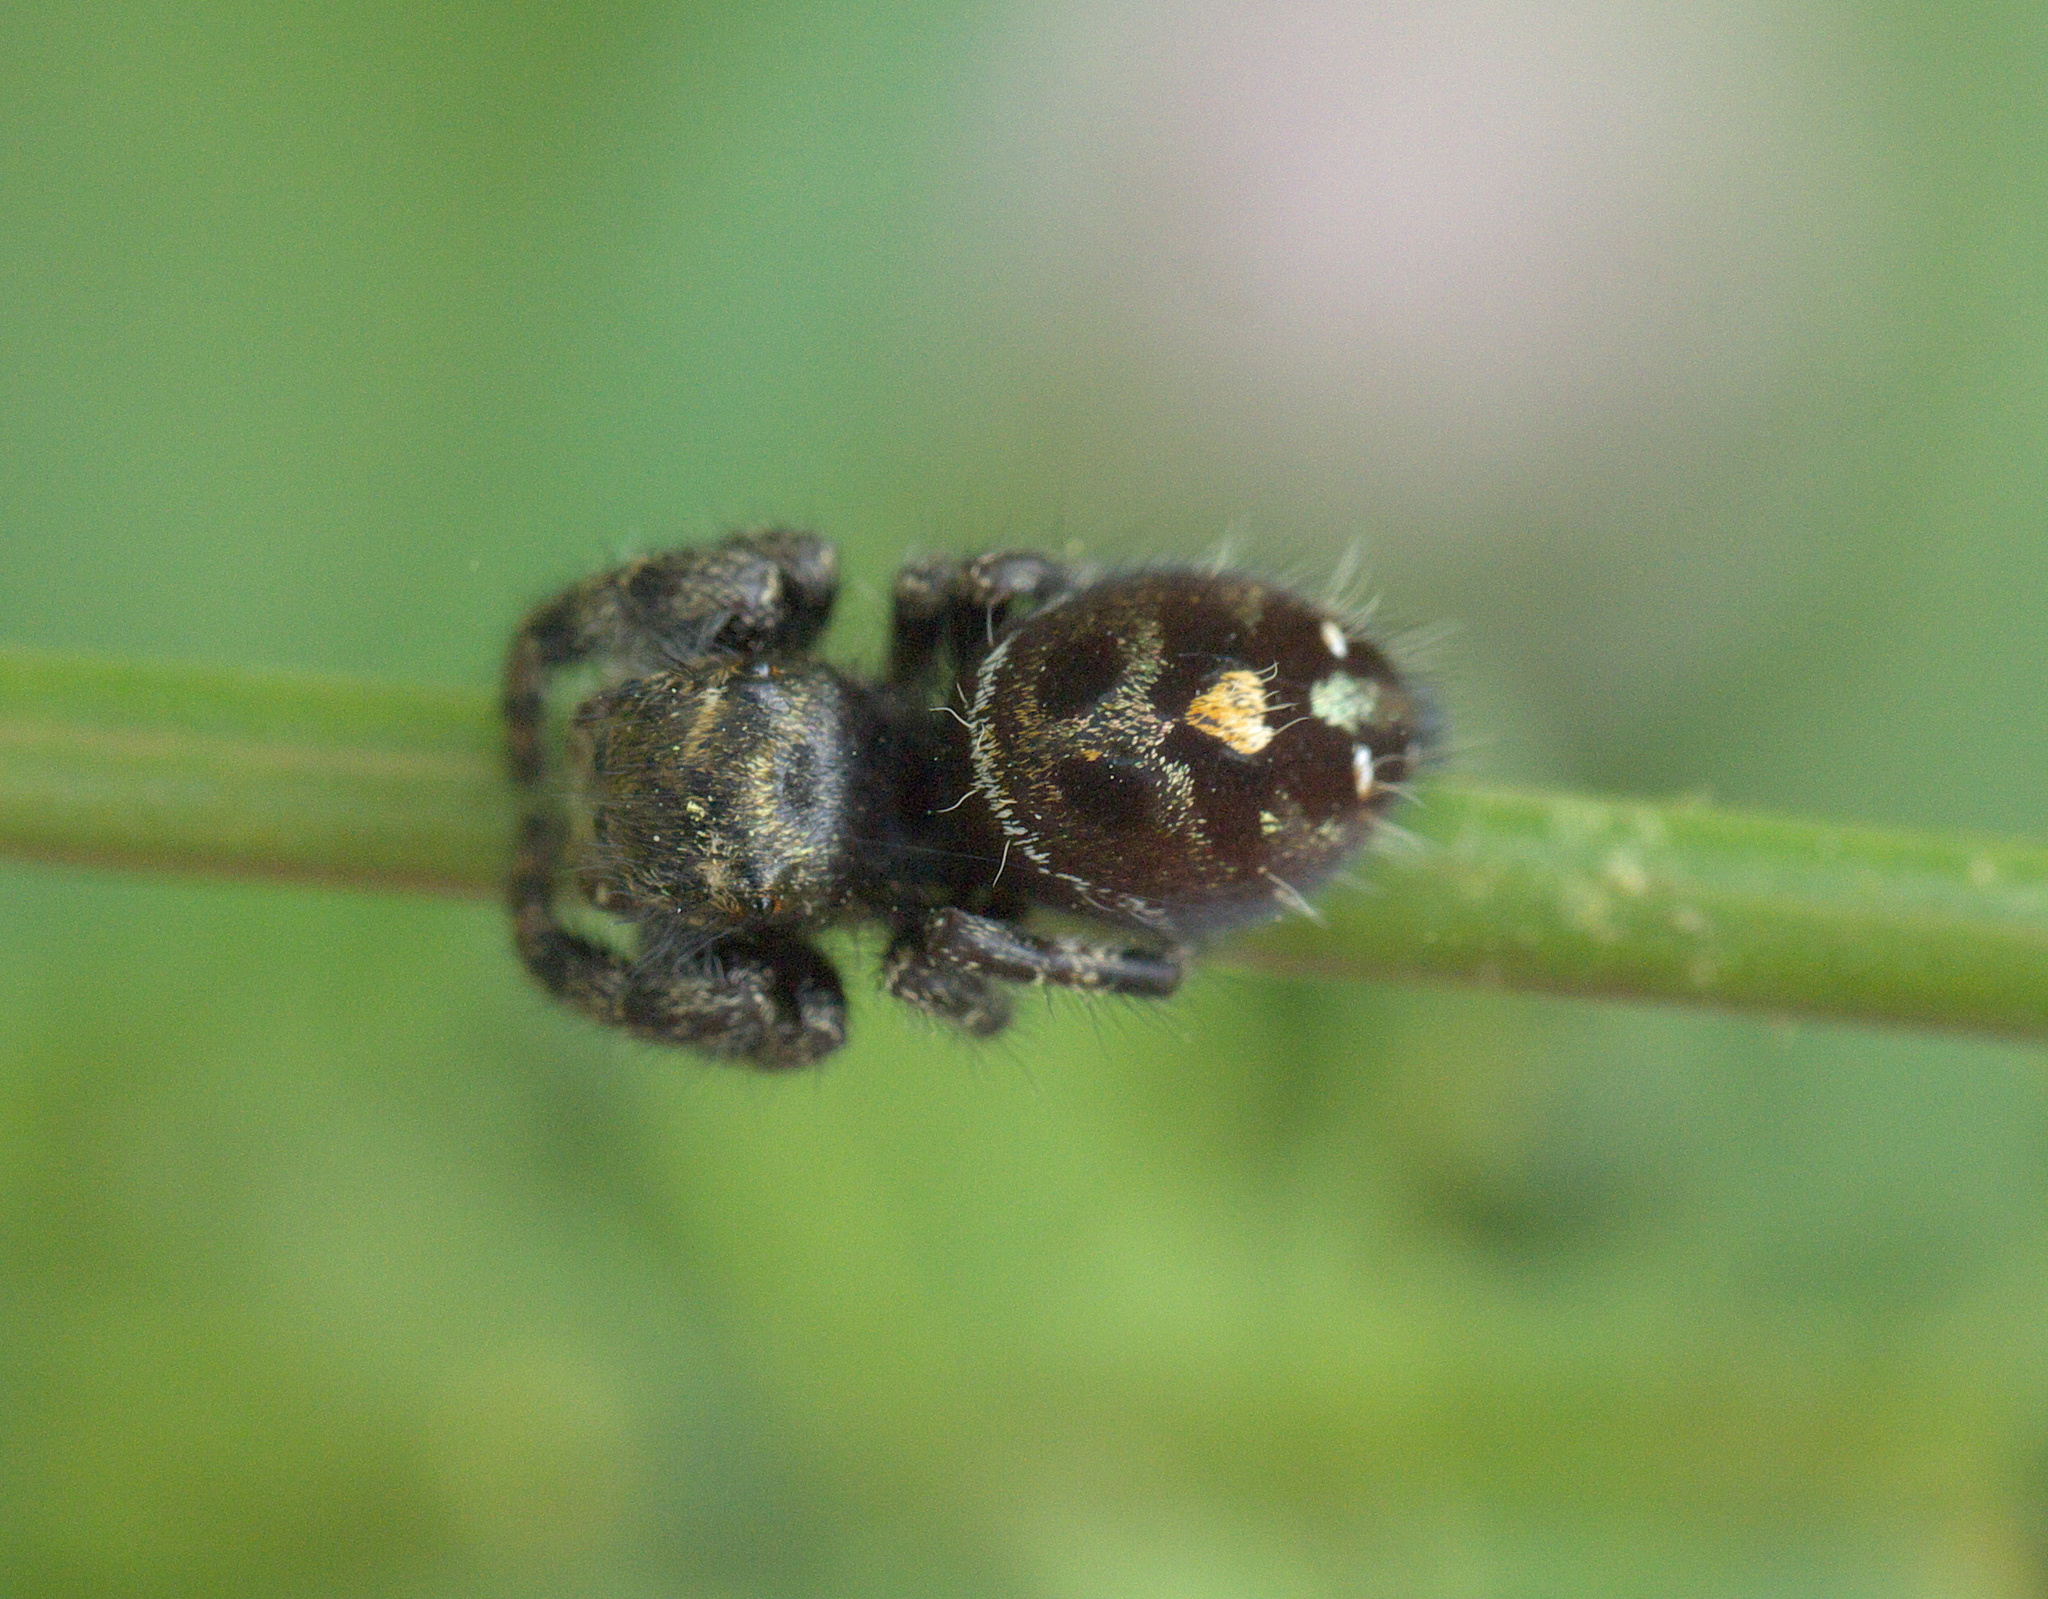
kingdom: Animalia
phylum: Arthropoda
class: Arachnida
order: Araneae
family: Salticidae
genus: Phidippus
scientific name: Phidippus audax
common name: Bold jumper
